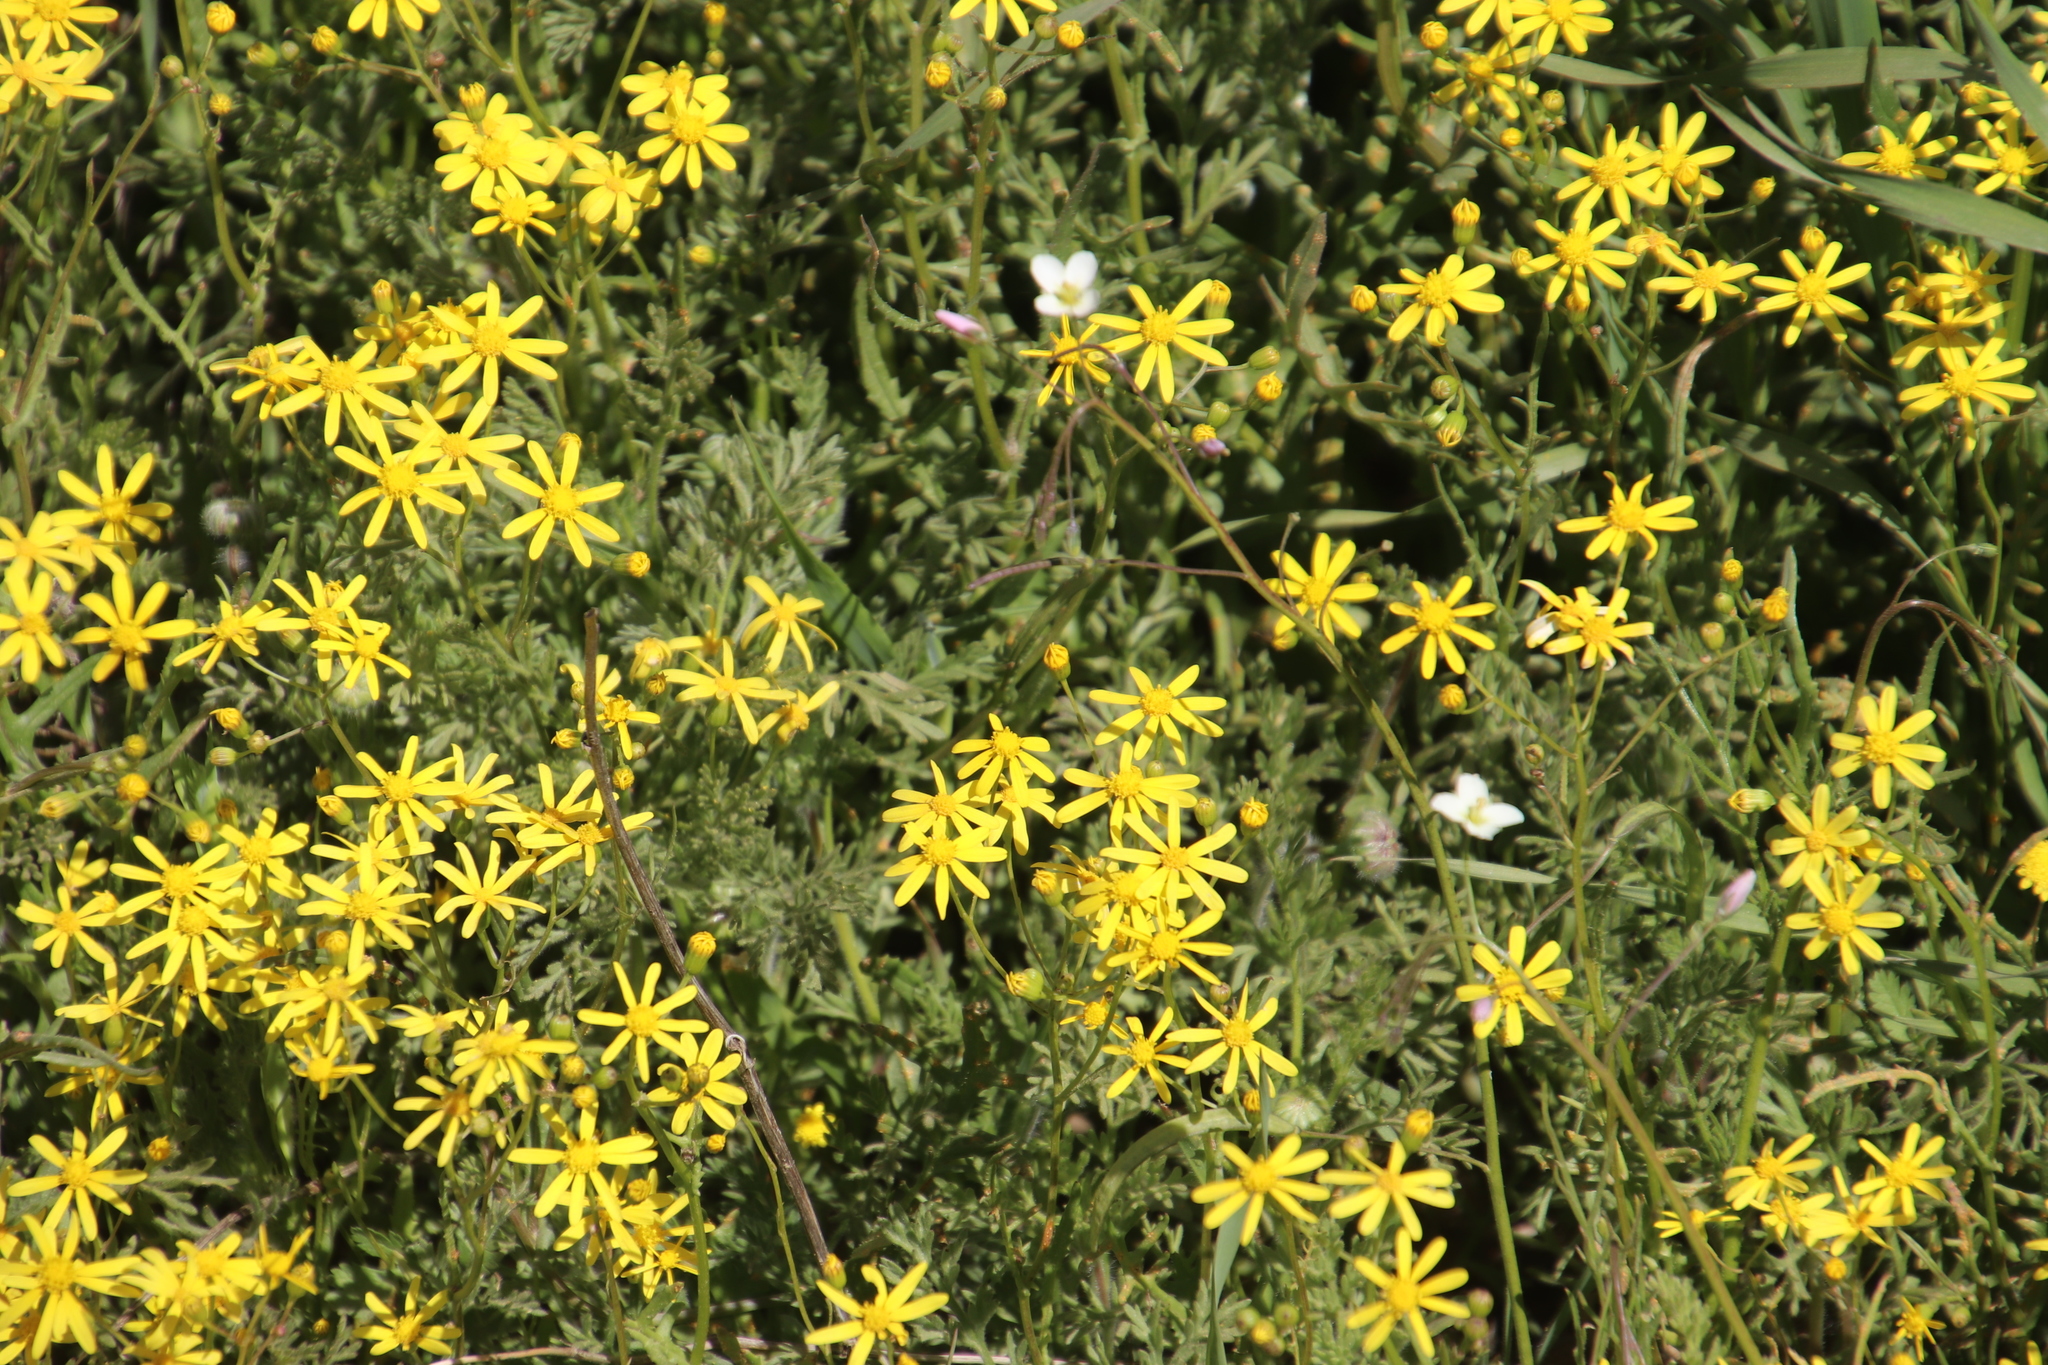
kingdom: Plantae
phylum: Tracheophyta
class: Magnoliopsida
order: Asterales
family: Asteraceae
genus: Senecio
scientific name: Senecio abruptus
